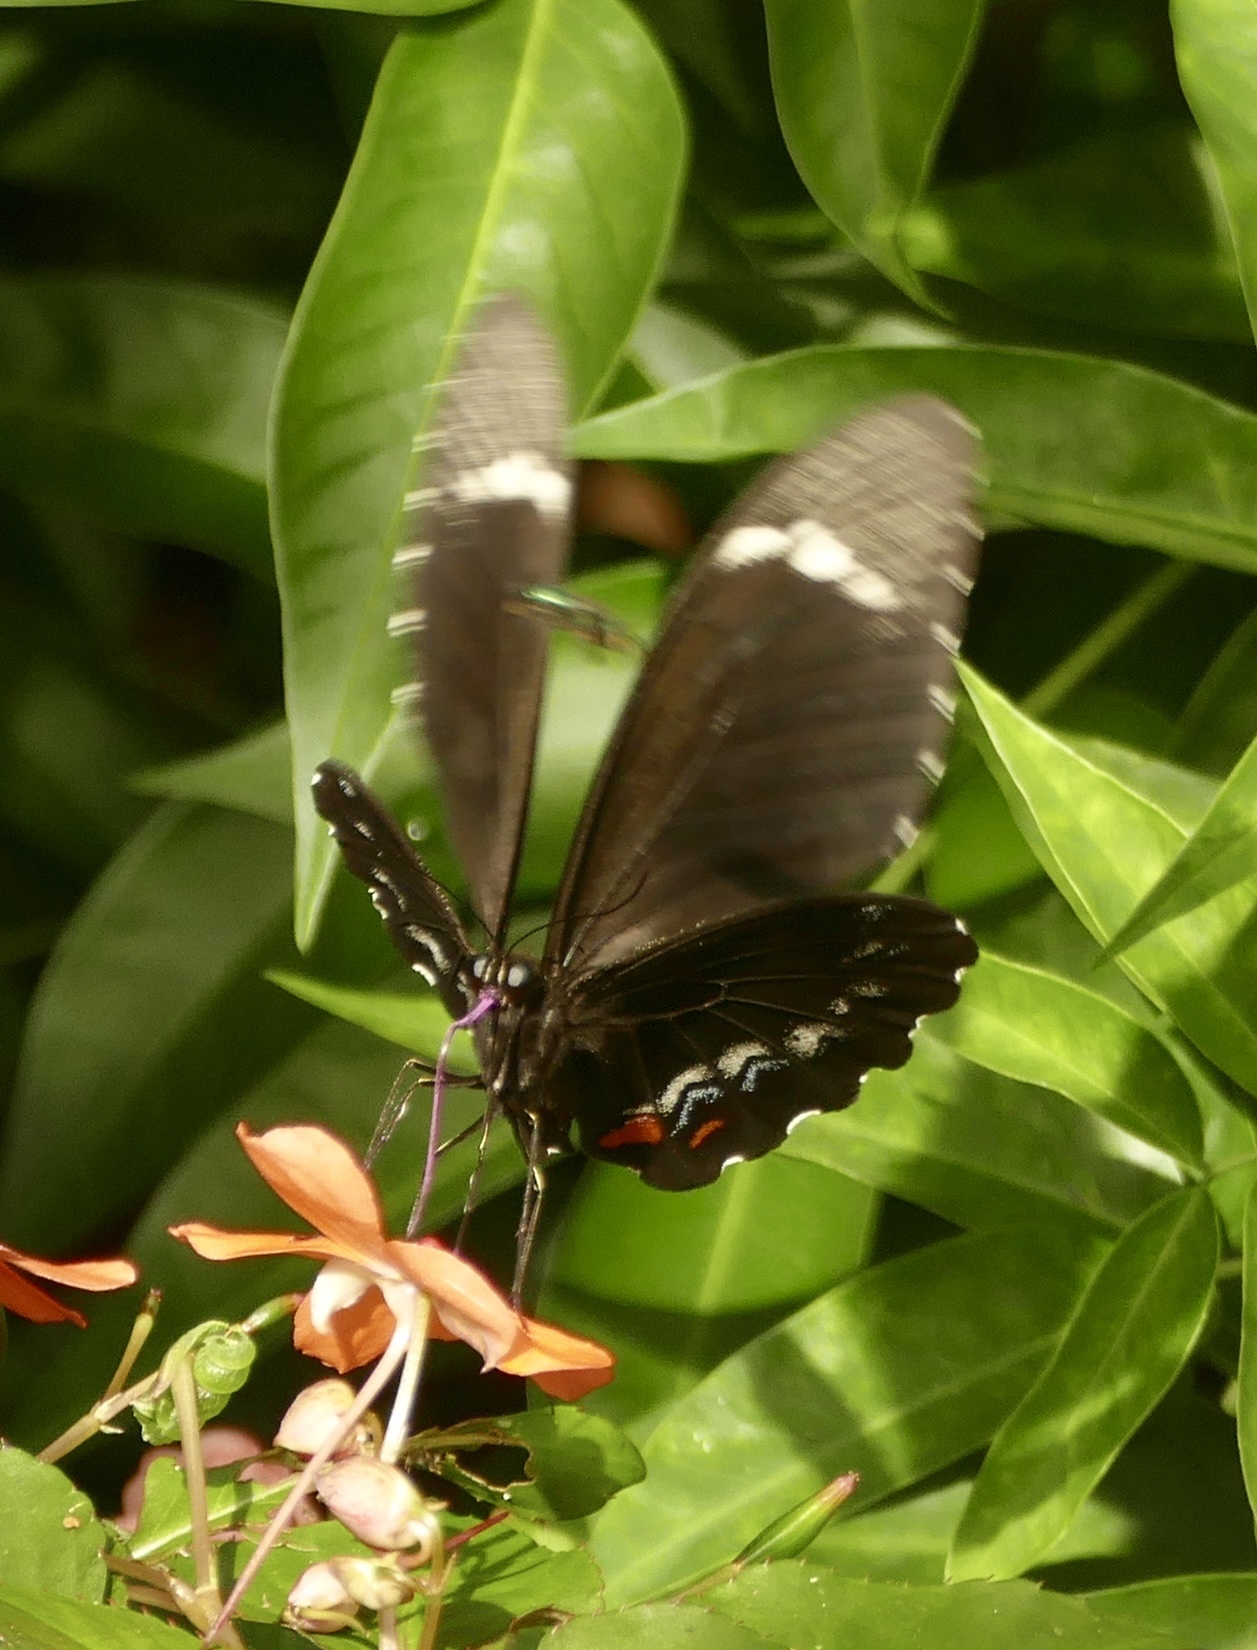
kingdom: Animalia
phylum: Arthropoda
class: Insecta
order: Lepidoptera
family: Papilionidae
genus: Papilio
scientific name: Papilio aegeus
